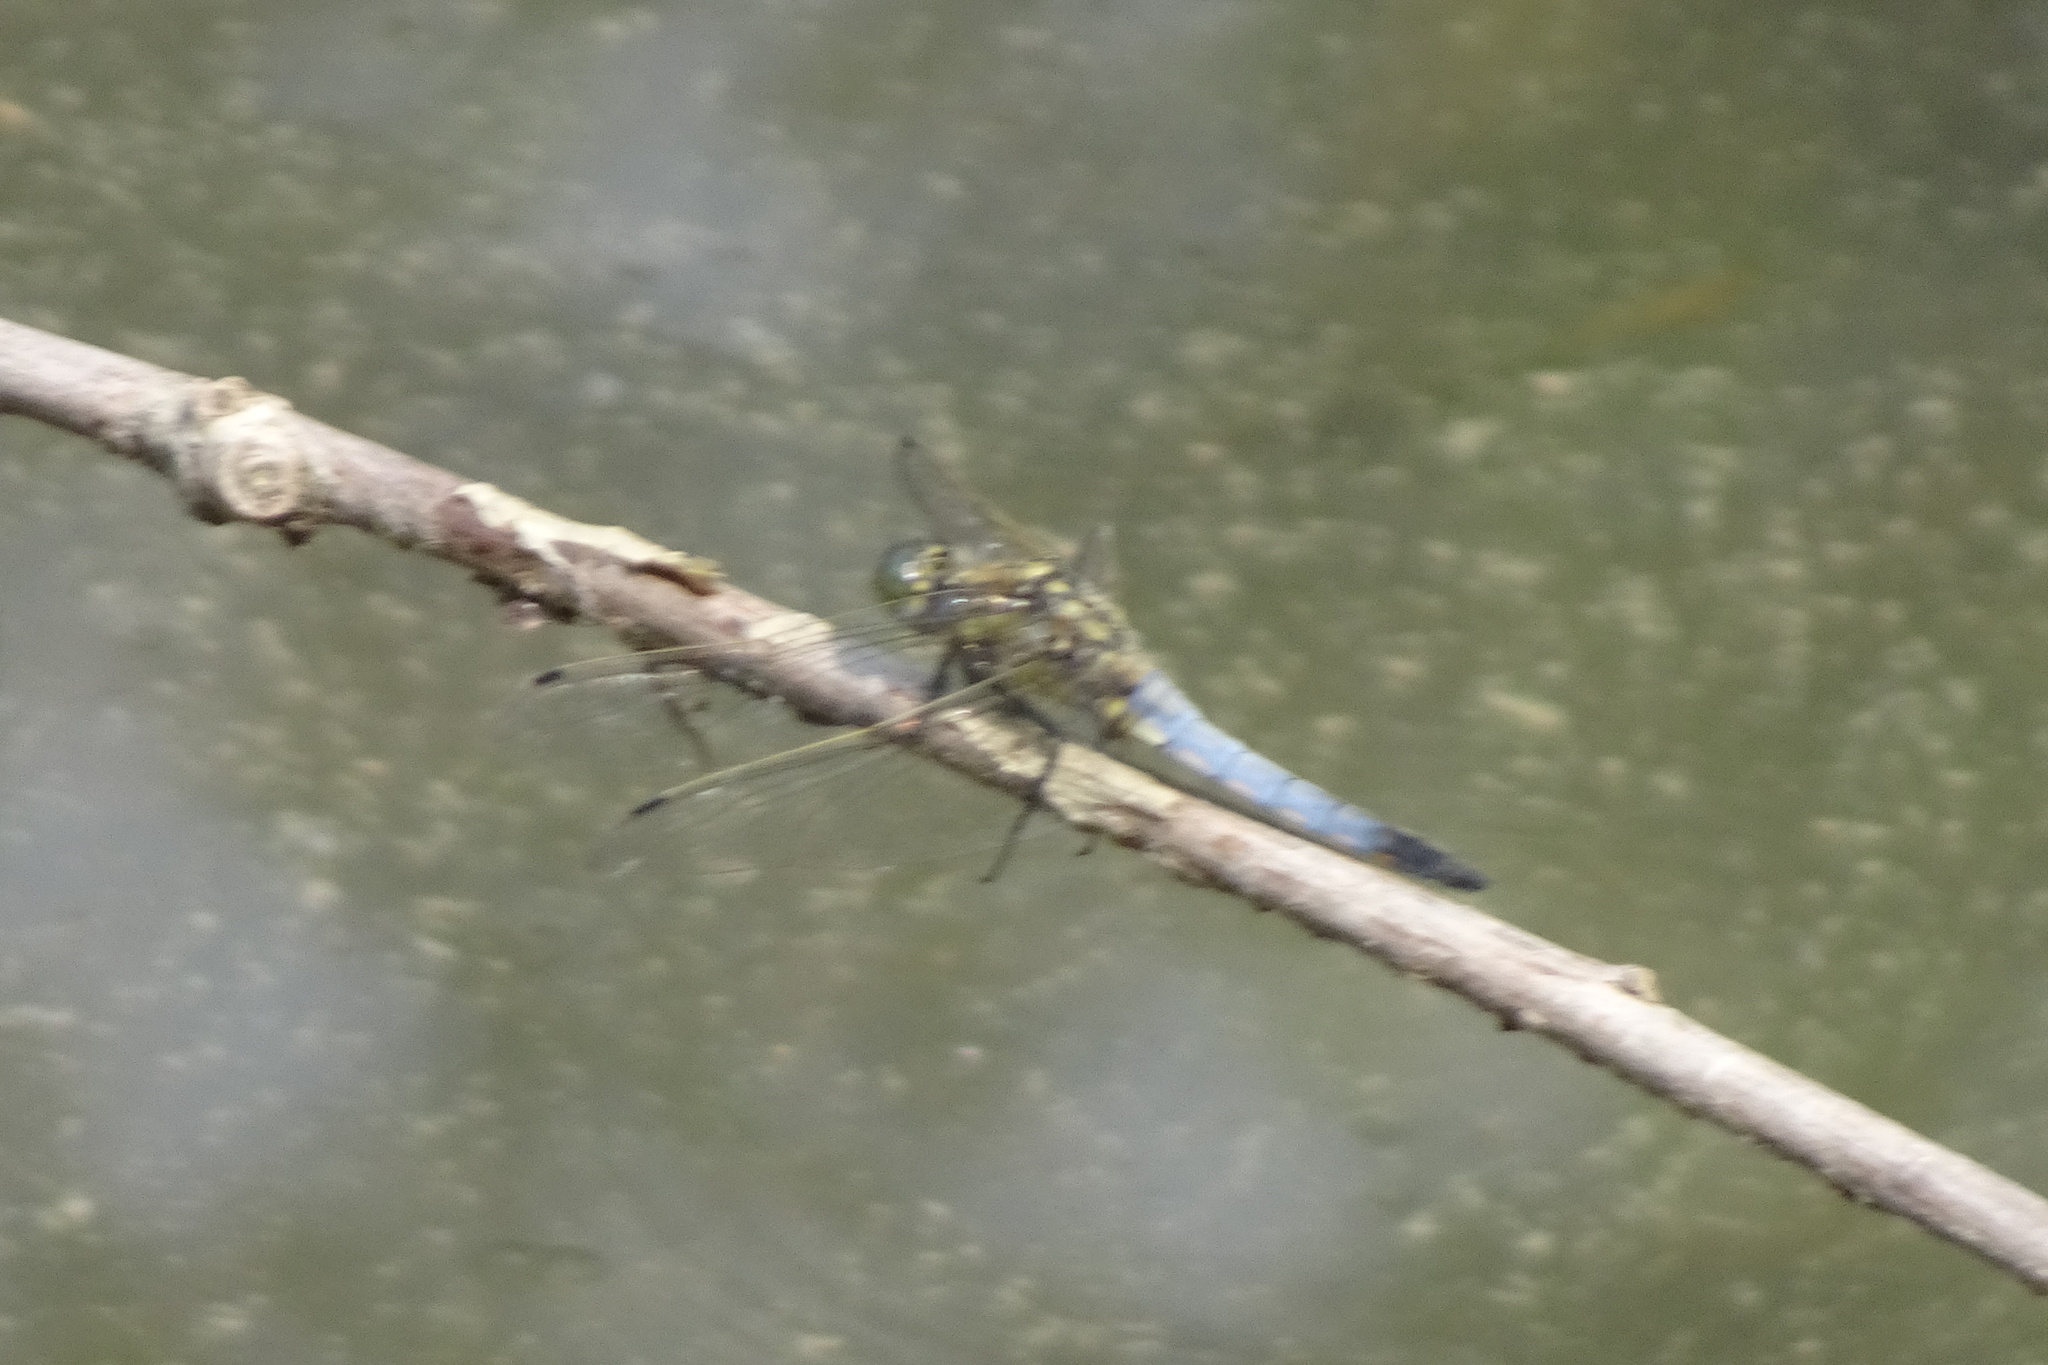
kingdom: Animalia
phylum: Arthropoda
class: Insecta
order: Odonata
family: Libellulidae
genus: Orthetrum
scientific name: Orthetrum cancellatum
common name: Black-tailed skimmer
